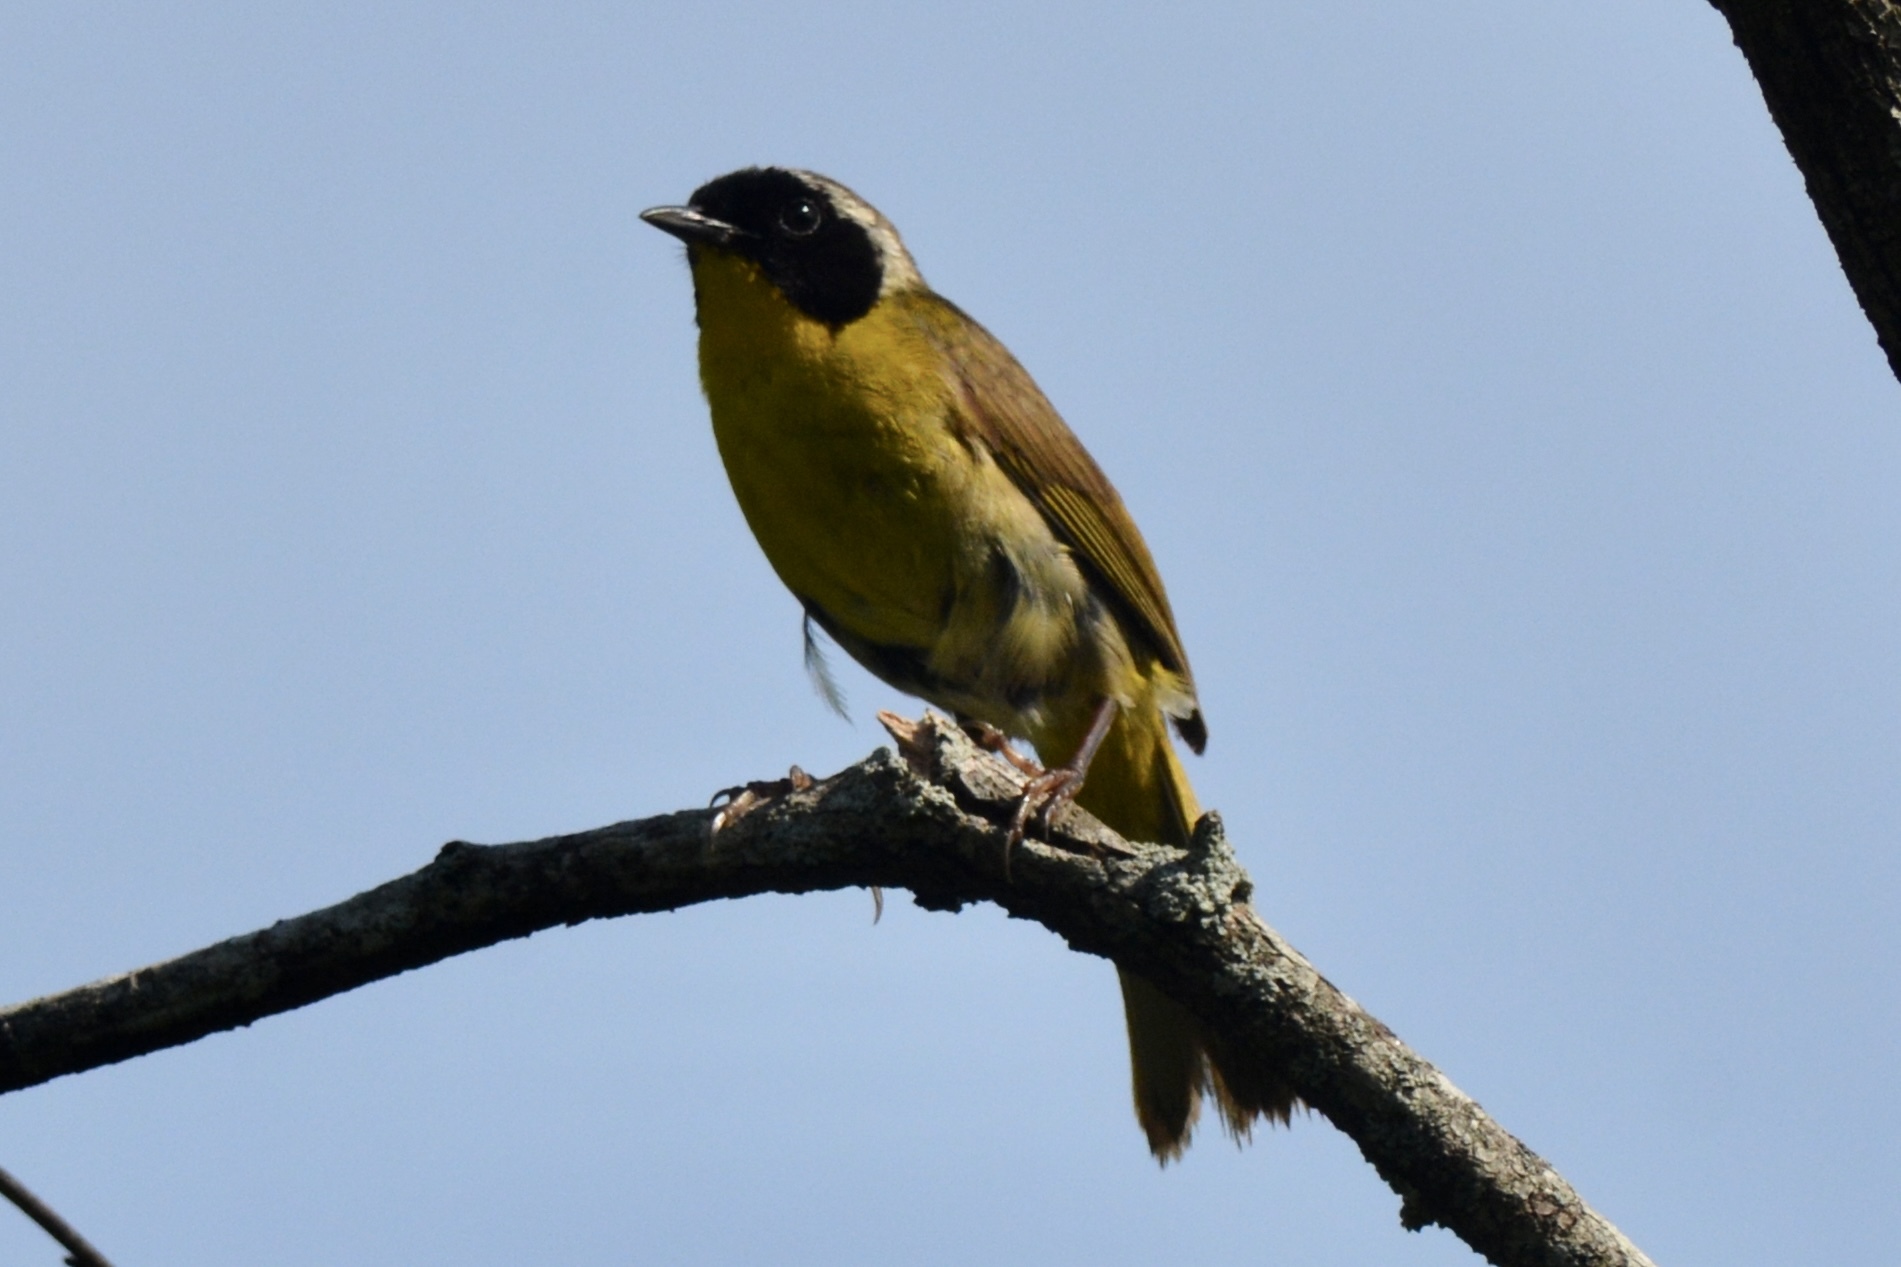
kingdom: Animalia
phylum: Chordata
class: Aves
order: Passeriformes
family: Parulidae
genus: Geothlypis
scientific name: Geothlypis trichas
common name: Common yellowthroat
